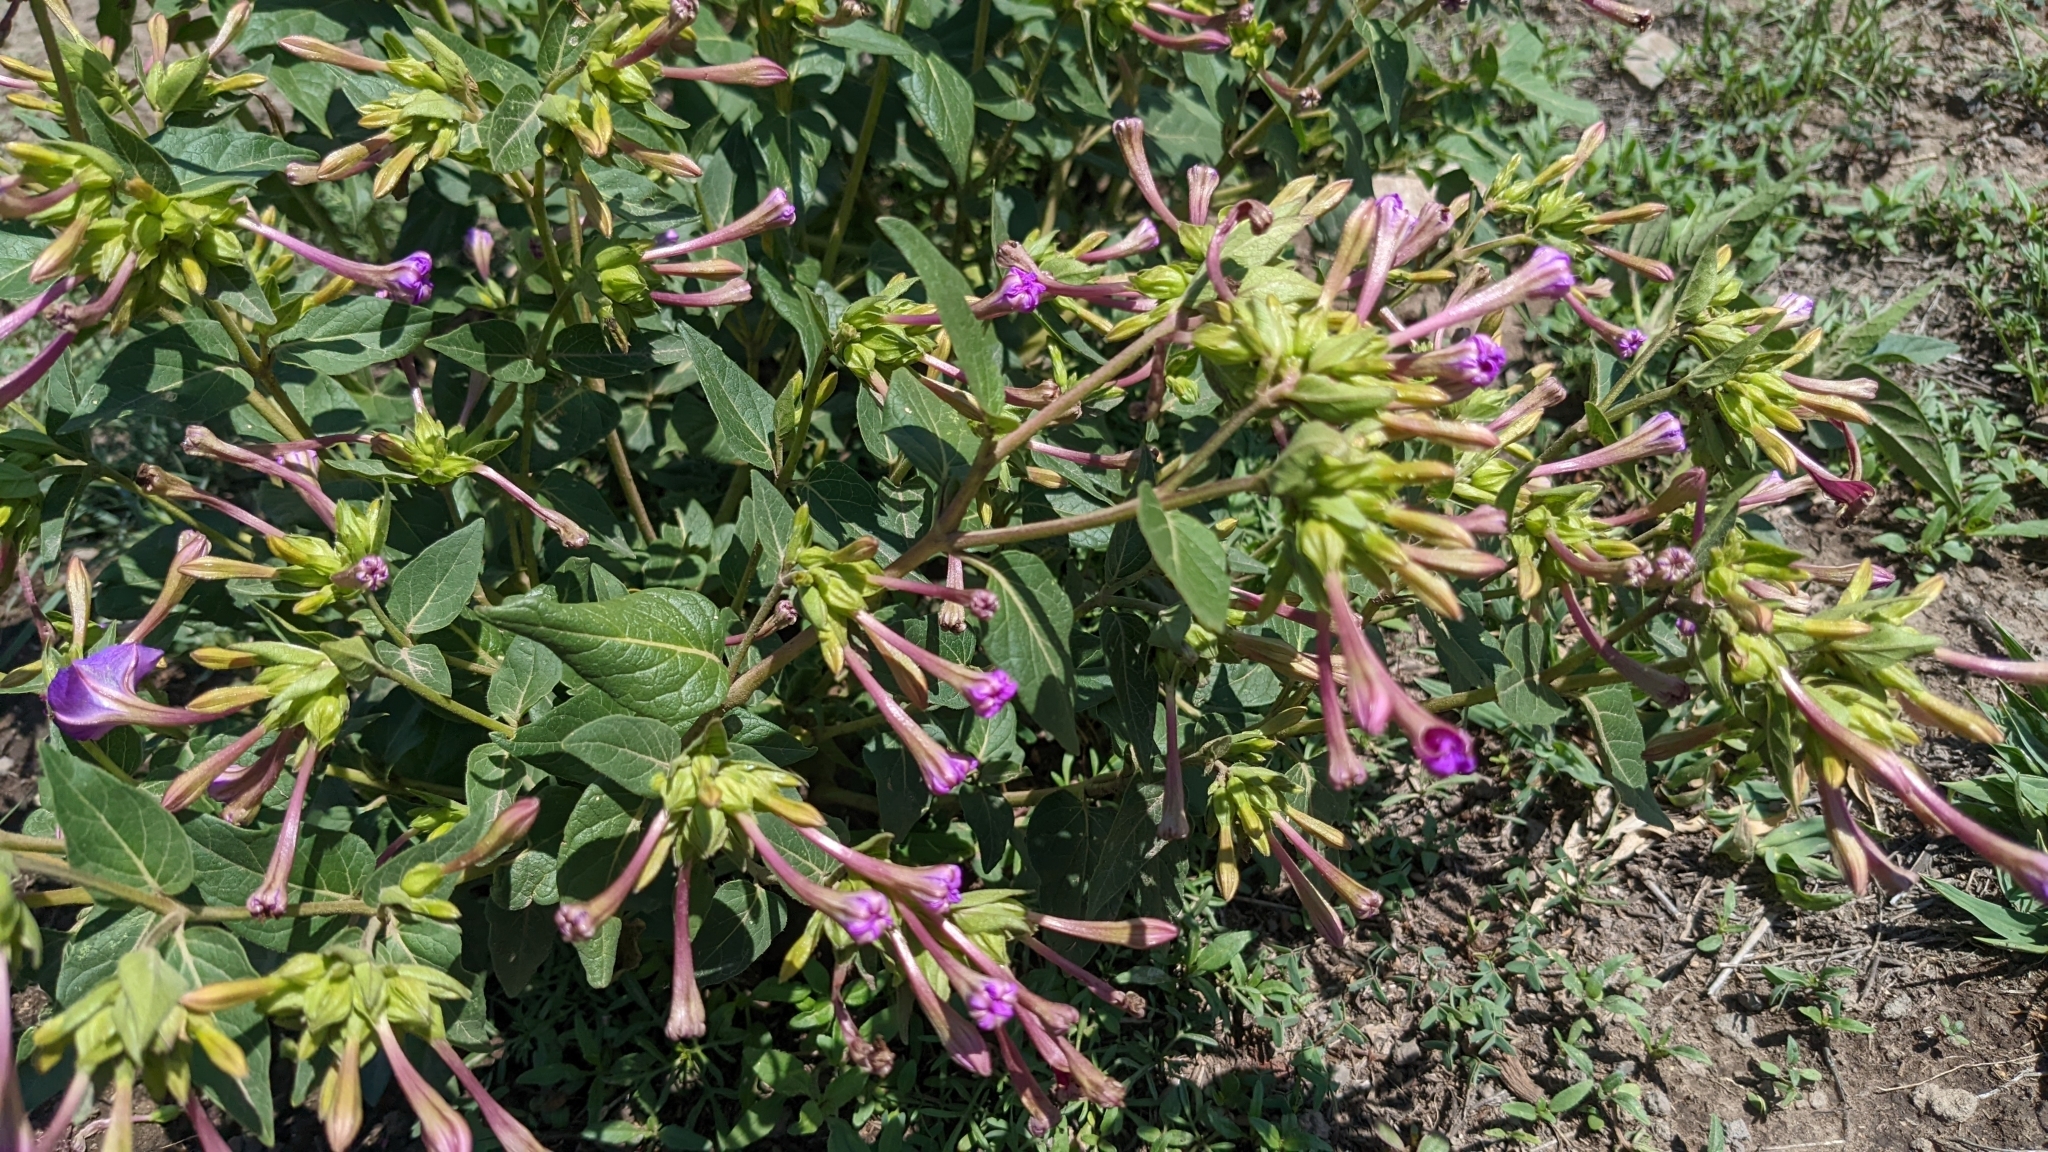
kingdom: Plantae
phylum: Tracheophyta
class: Magnoliopsida
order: Caryophyllales
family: Nyctaginaceae
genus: Mirabilis
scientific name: Mirabilis jalapa
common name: Marvel-of-peru
